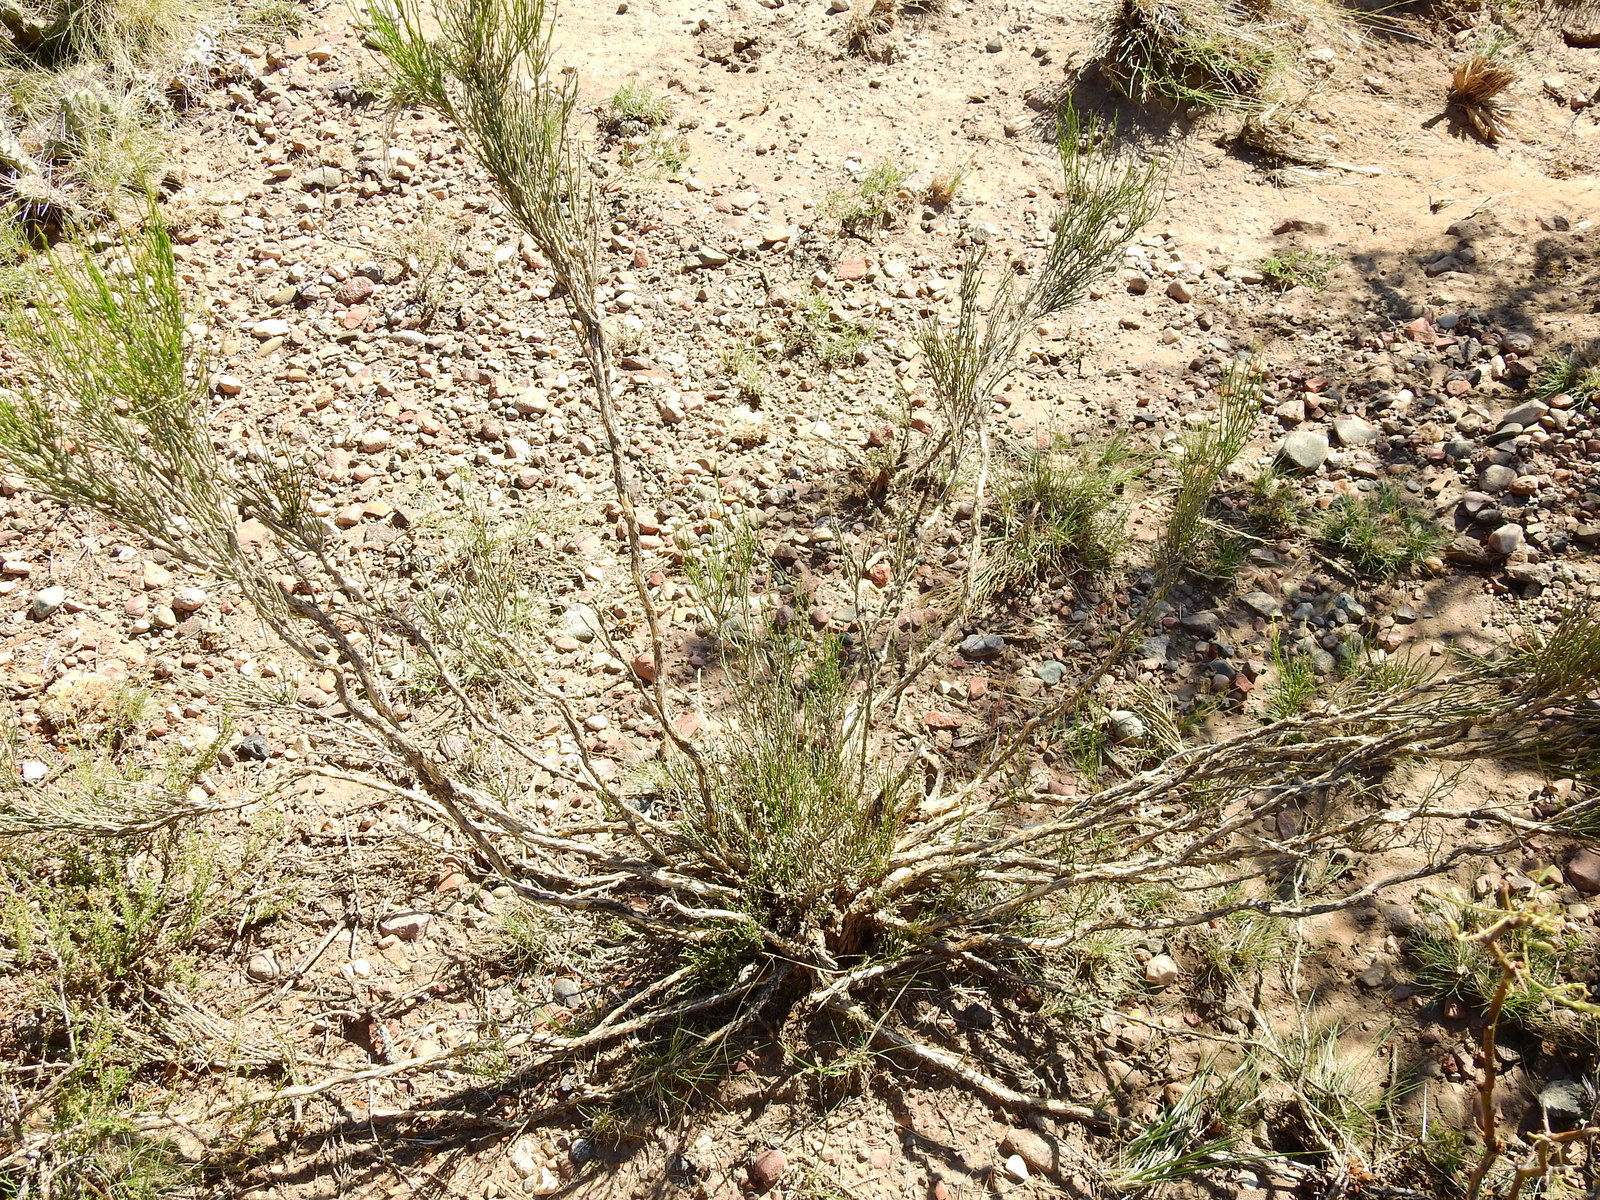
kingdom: Plantae
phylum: Tracheophyta
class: Magnoliopsida
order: Solanales
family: Solanaceae
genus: Fabiana
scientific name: Fabiana denudata
